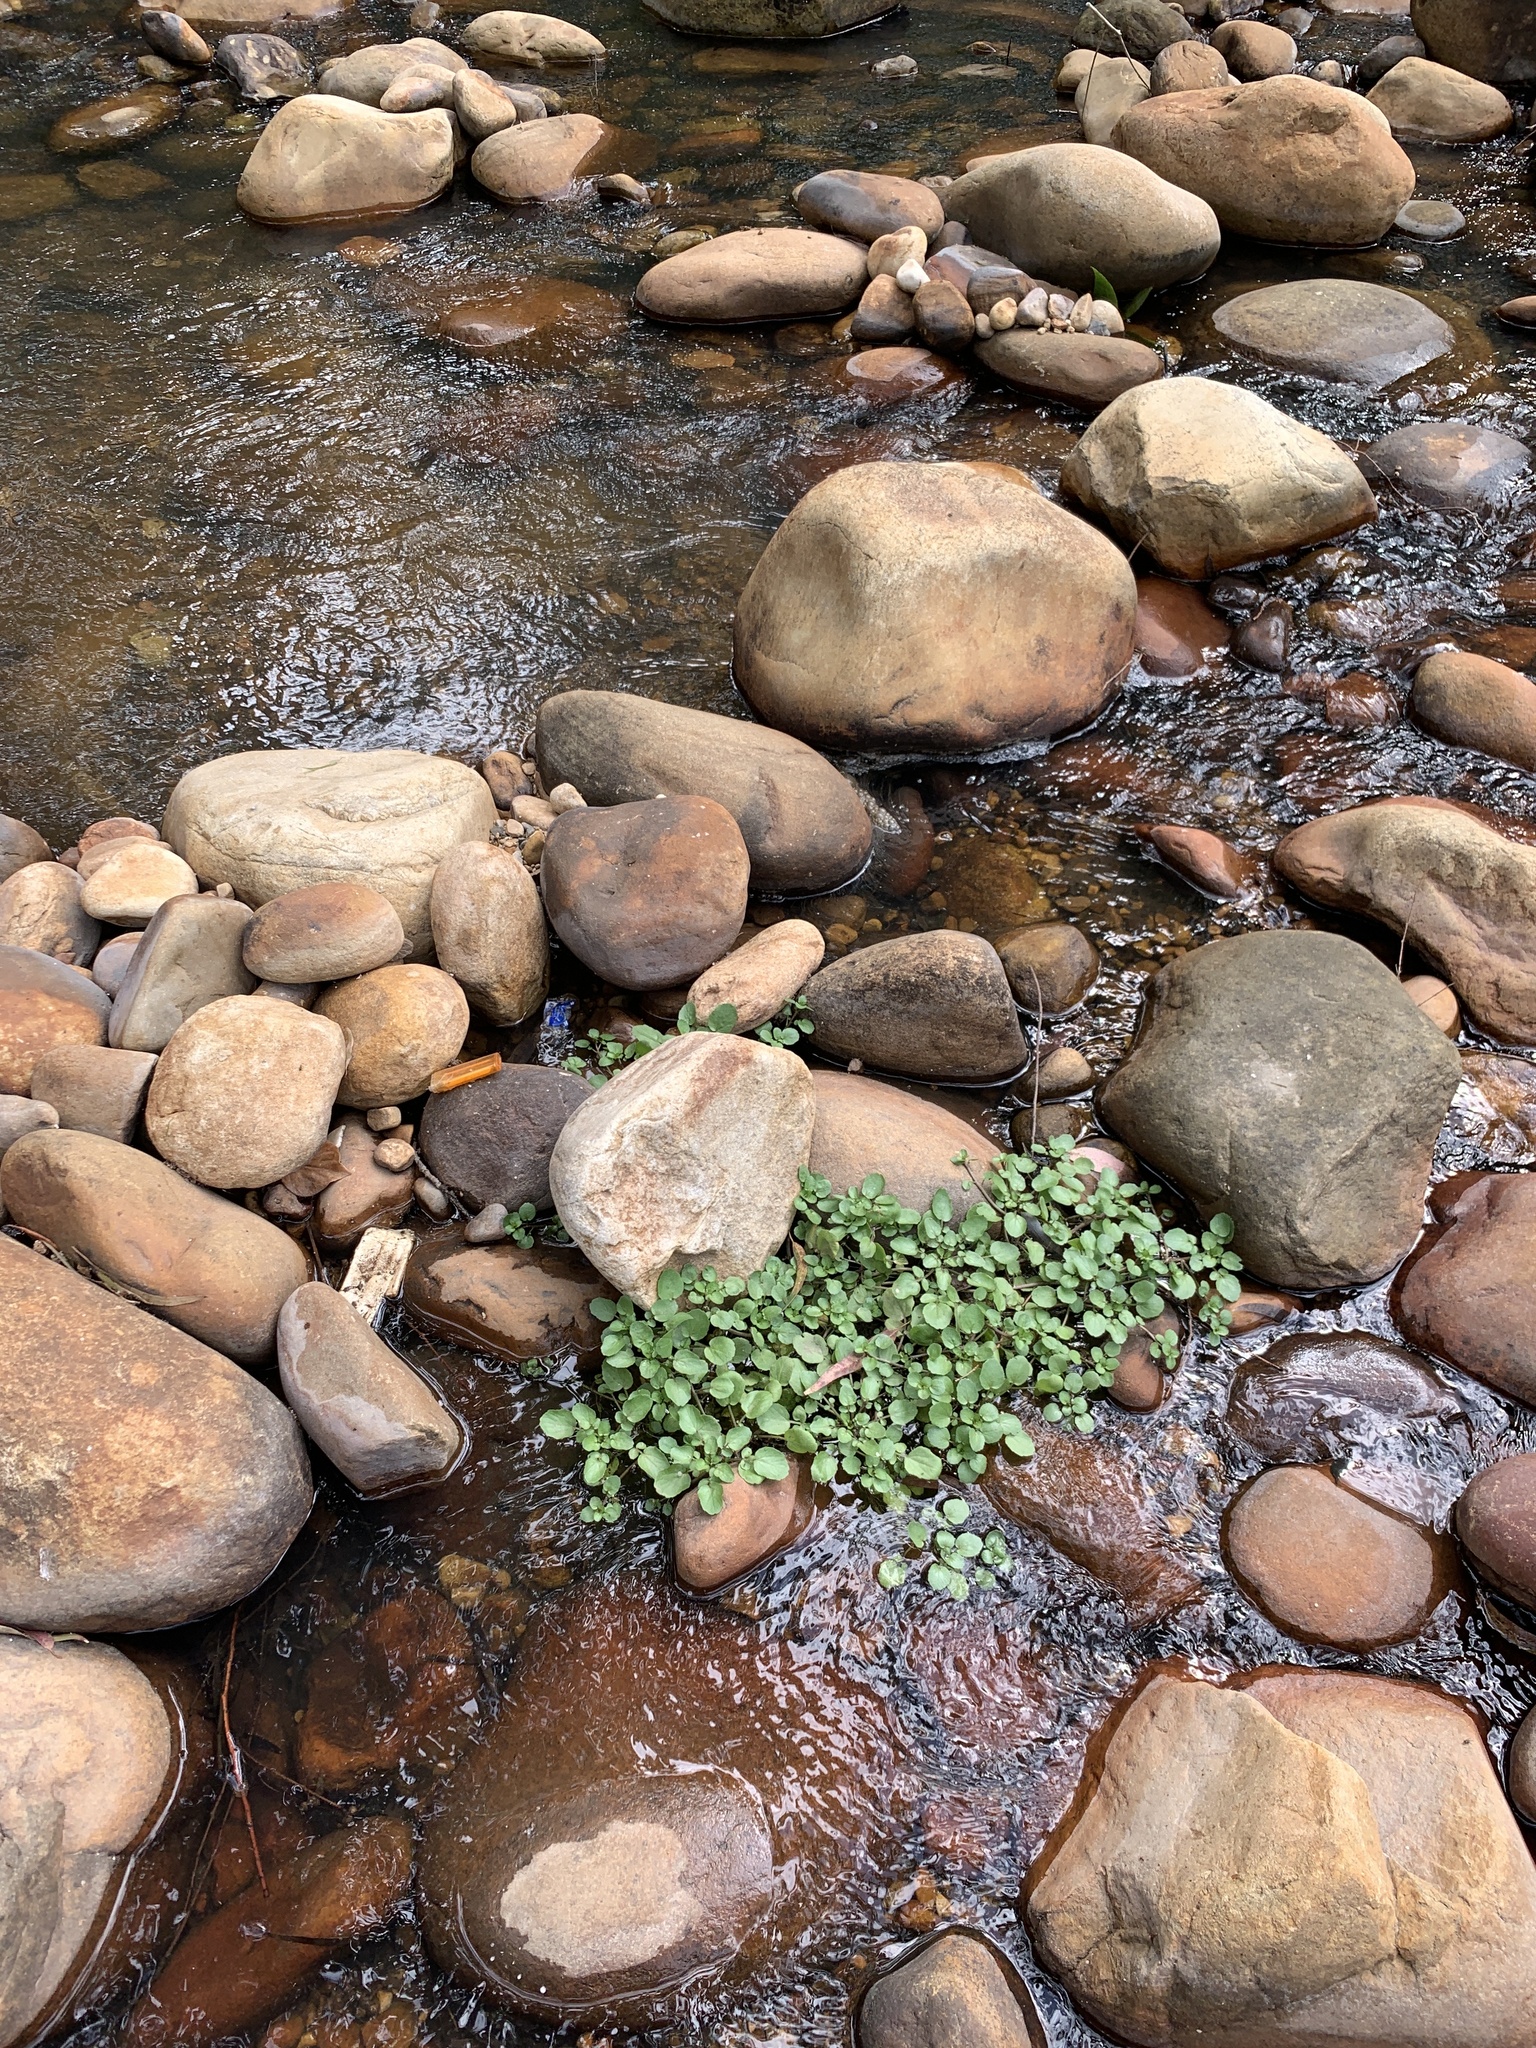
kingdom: Plantae
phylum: Tracheophyta
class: Magnoliopsida
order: Brassicales
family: Brassicaceae
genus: Nasturtium
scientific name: Nasturtium officinale
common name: Watercress
